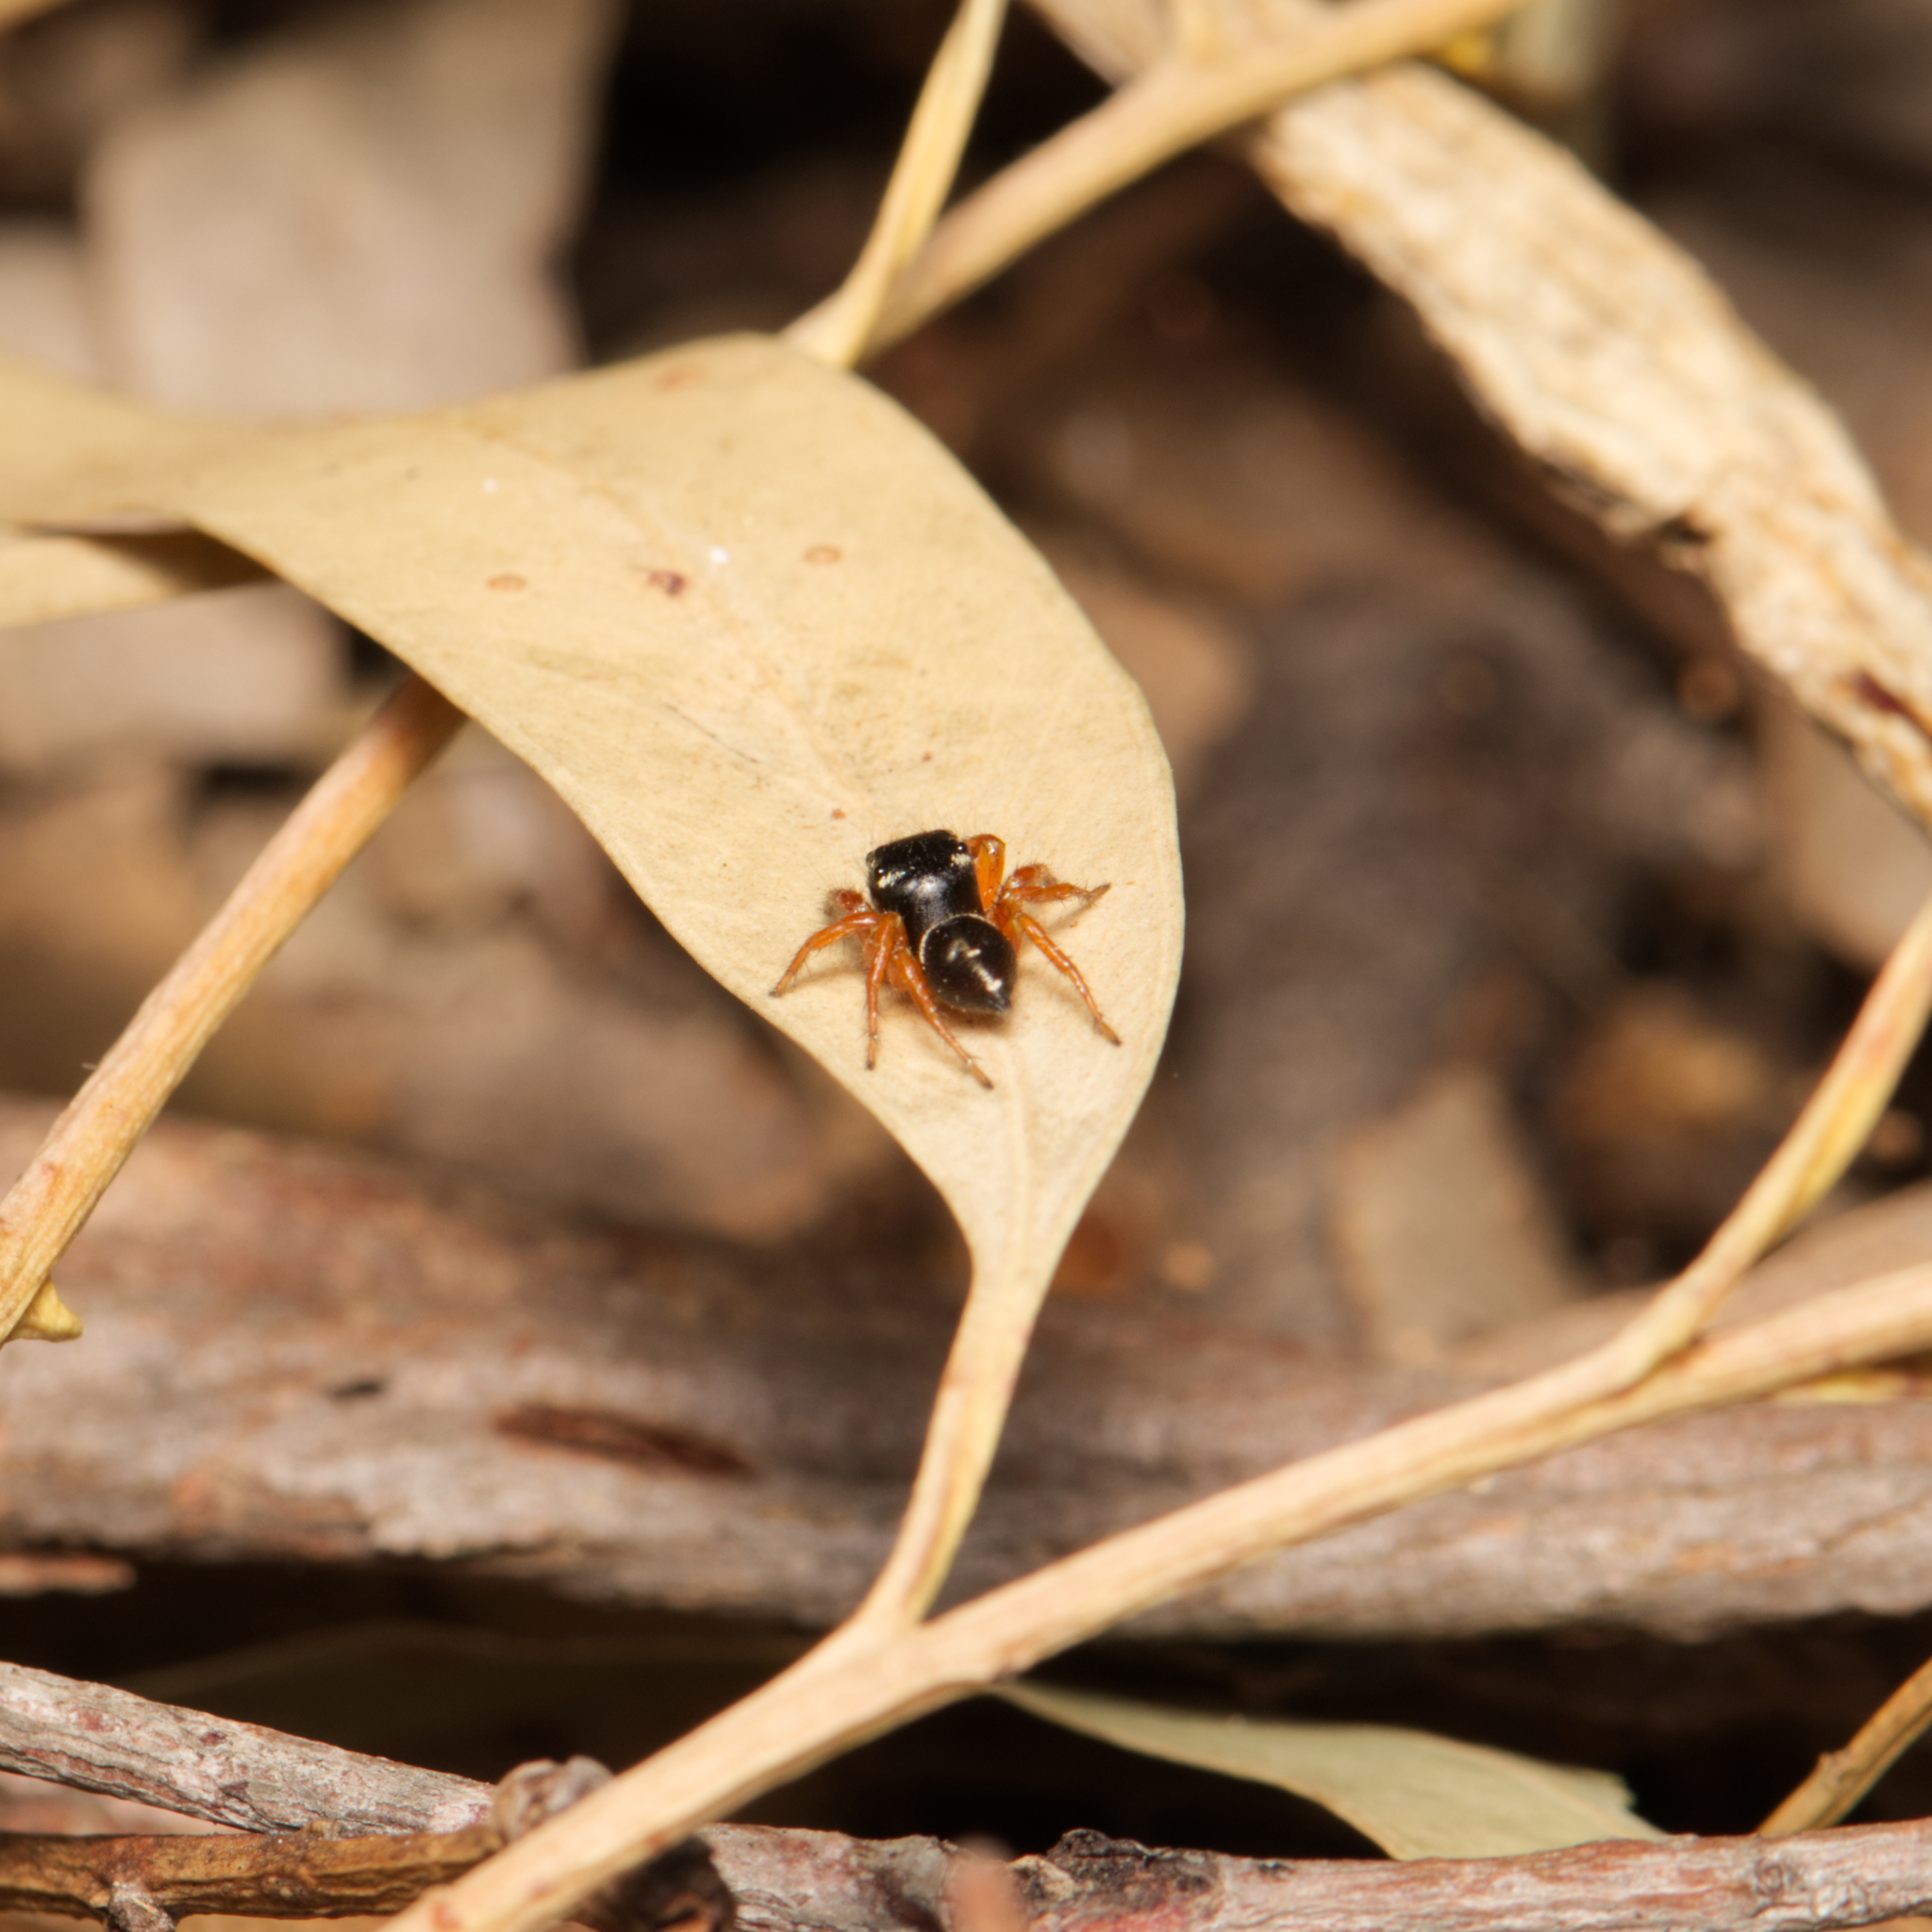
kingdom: Animalia
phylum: Arthropoda
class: Arachnida
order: Araneae
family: Salticidae
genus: Zenodorus
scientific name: Zenodorus orbiculatus
